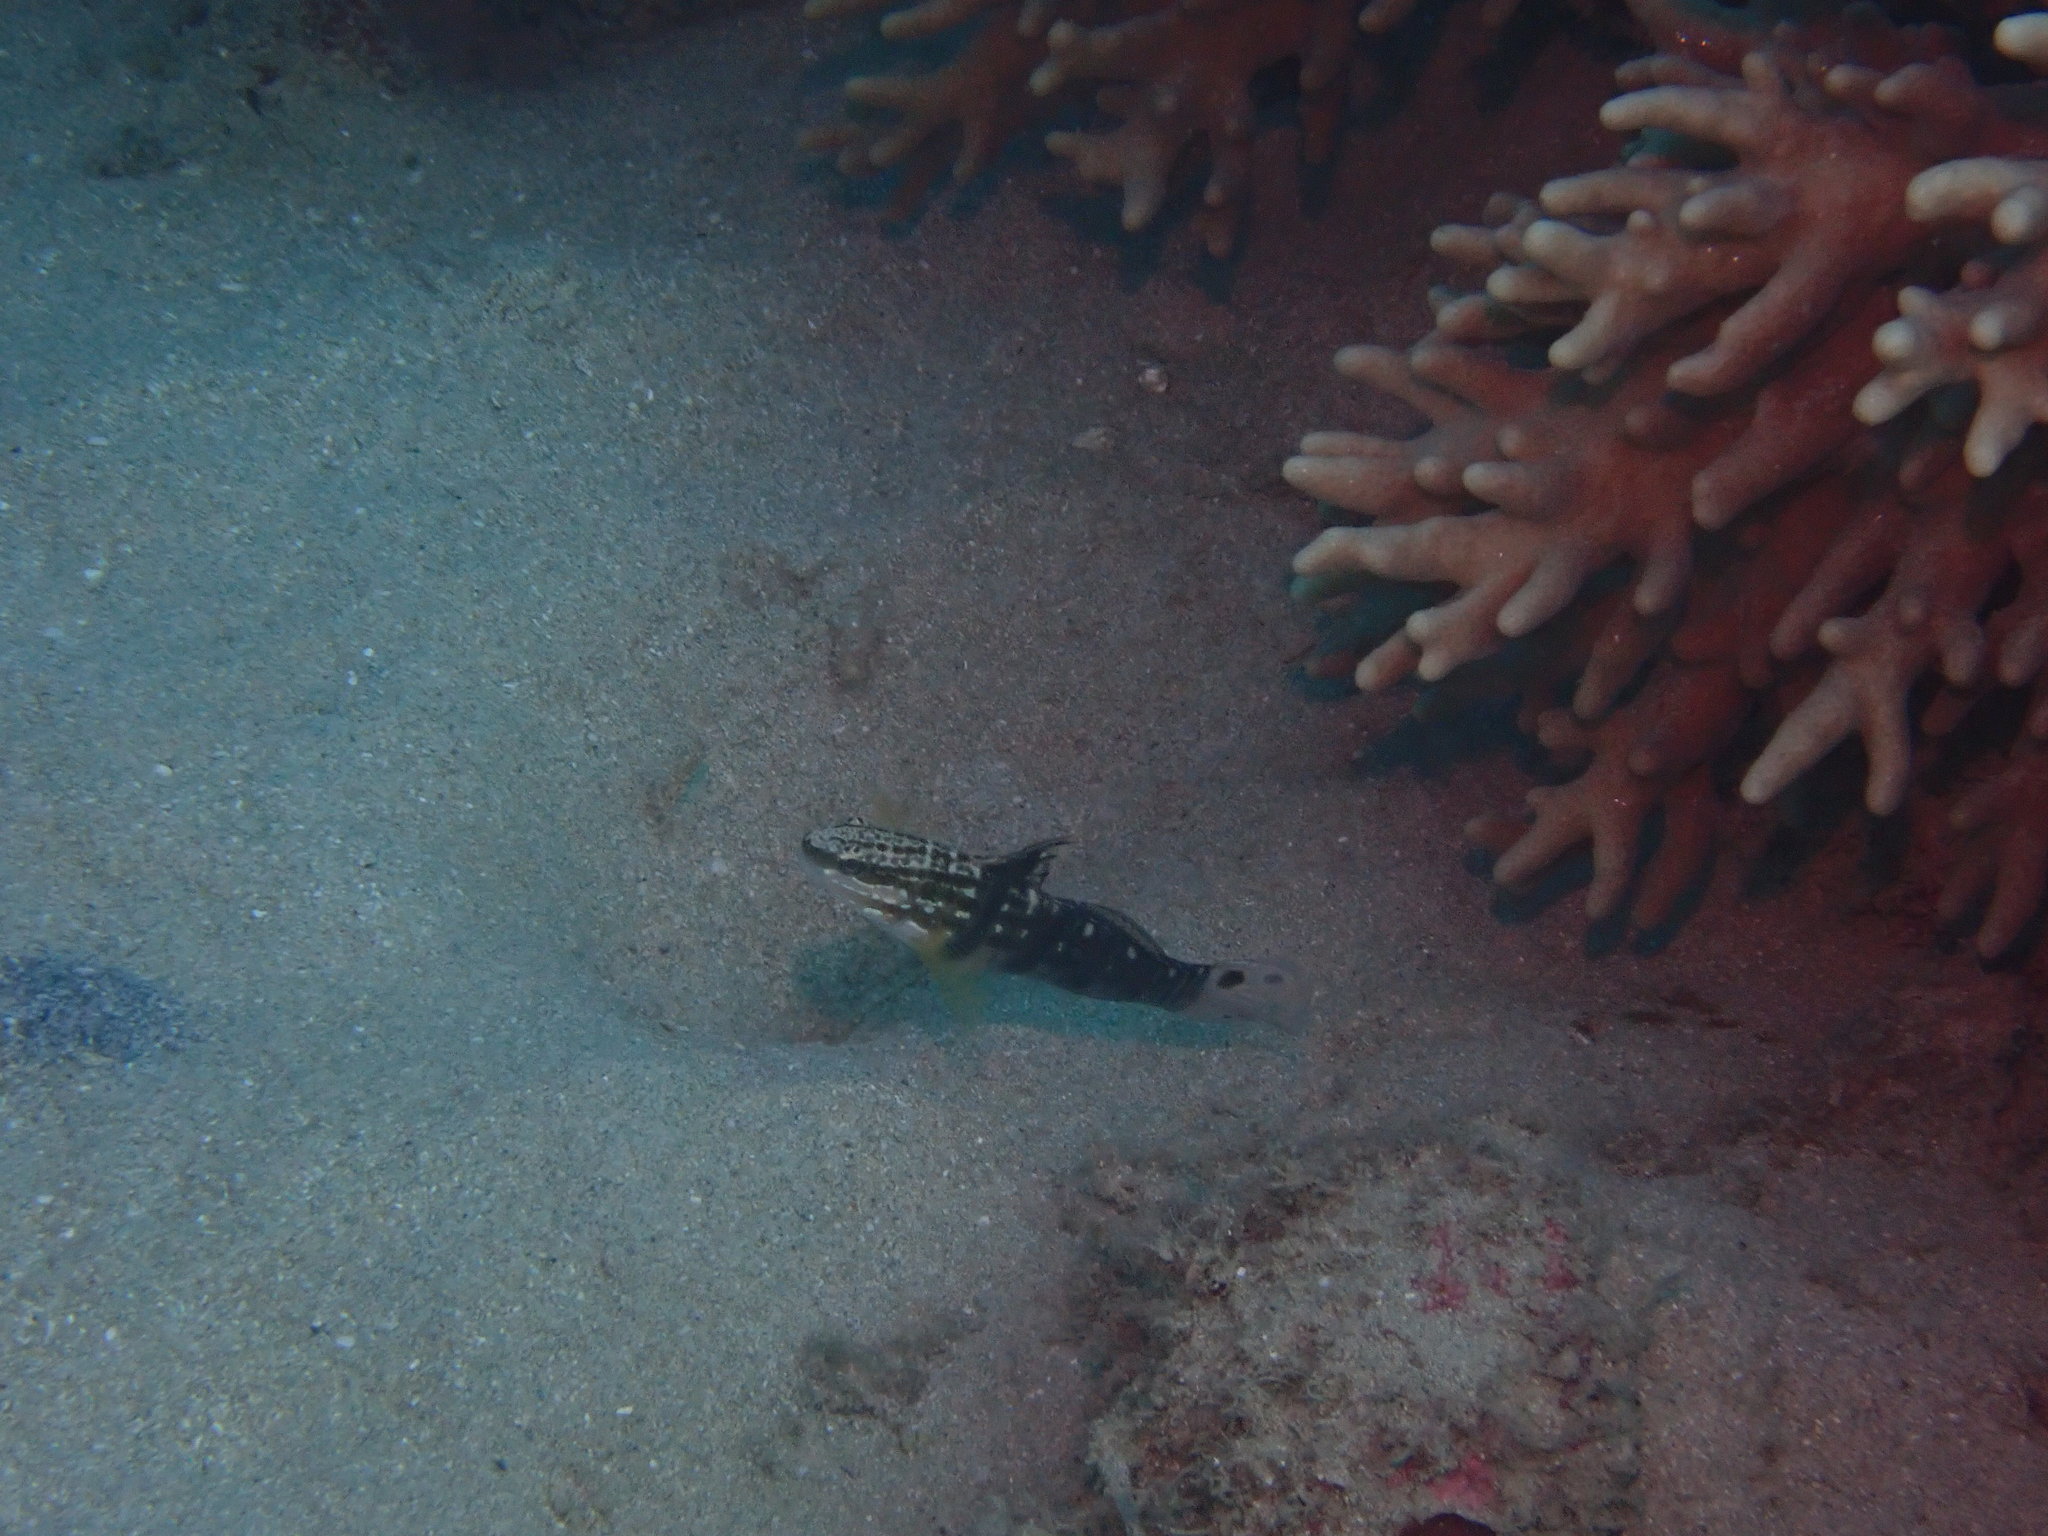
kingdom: Animalia
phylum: Chordata
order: Perciformes
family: Gobiidae
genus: Amblygobius
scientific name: Amblygobius phalaena
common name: Banded goby
